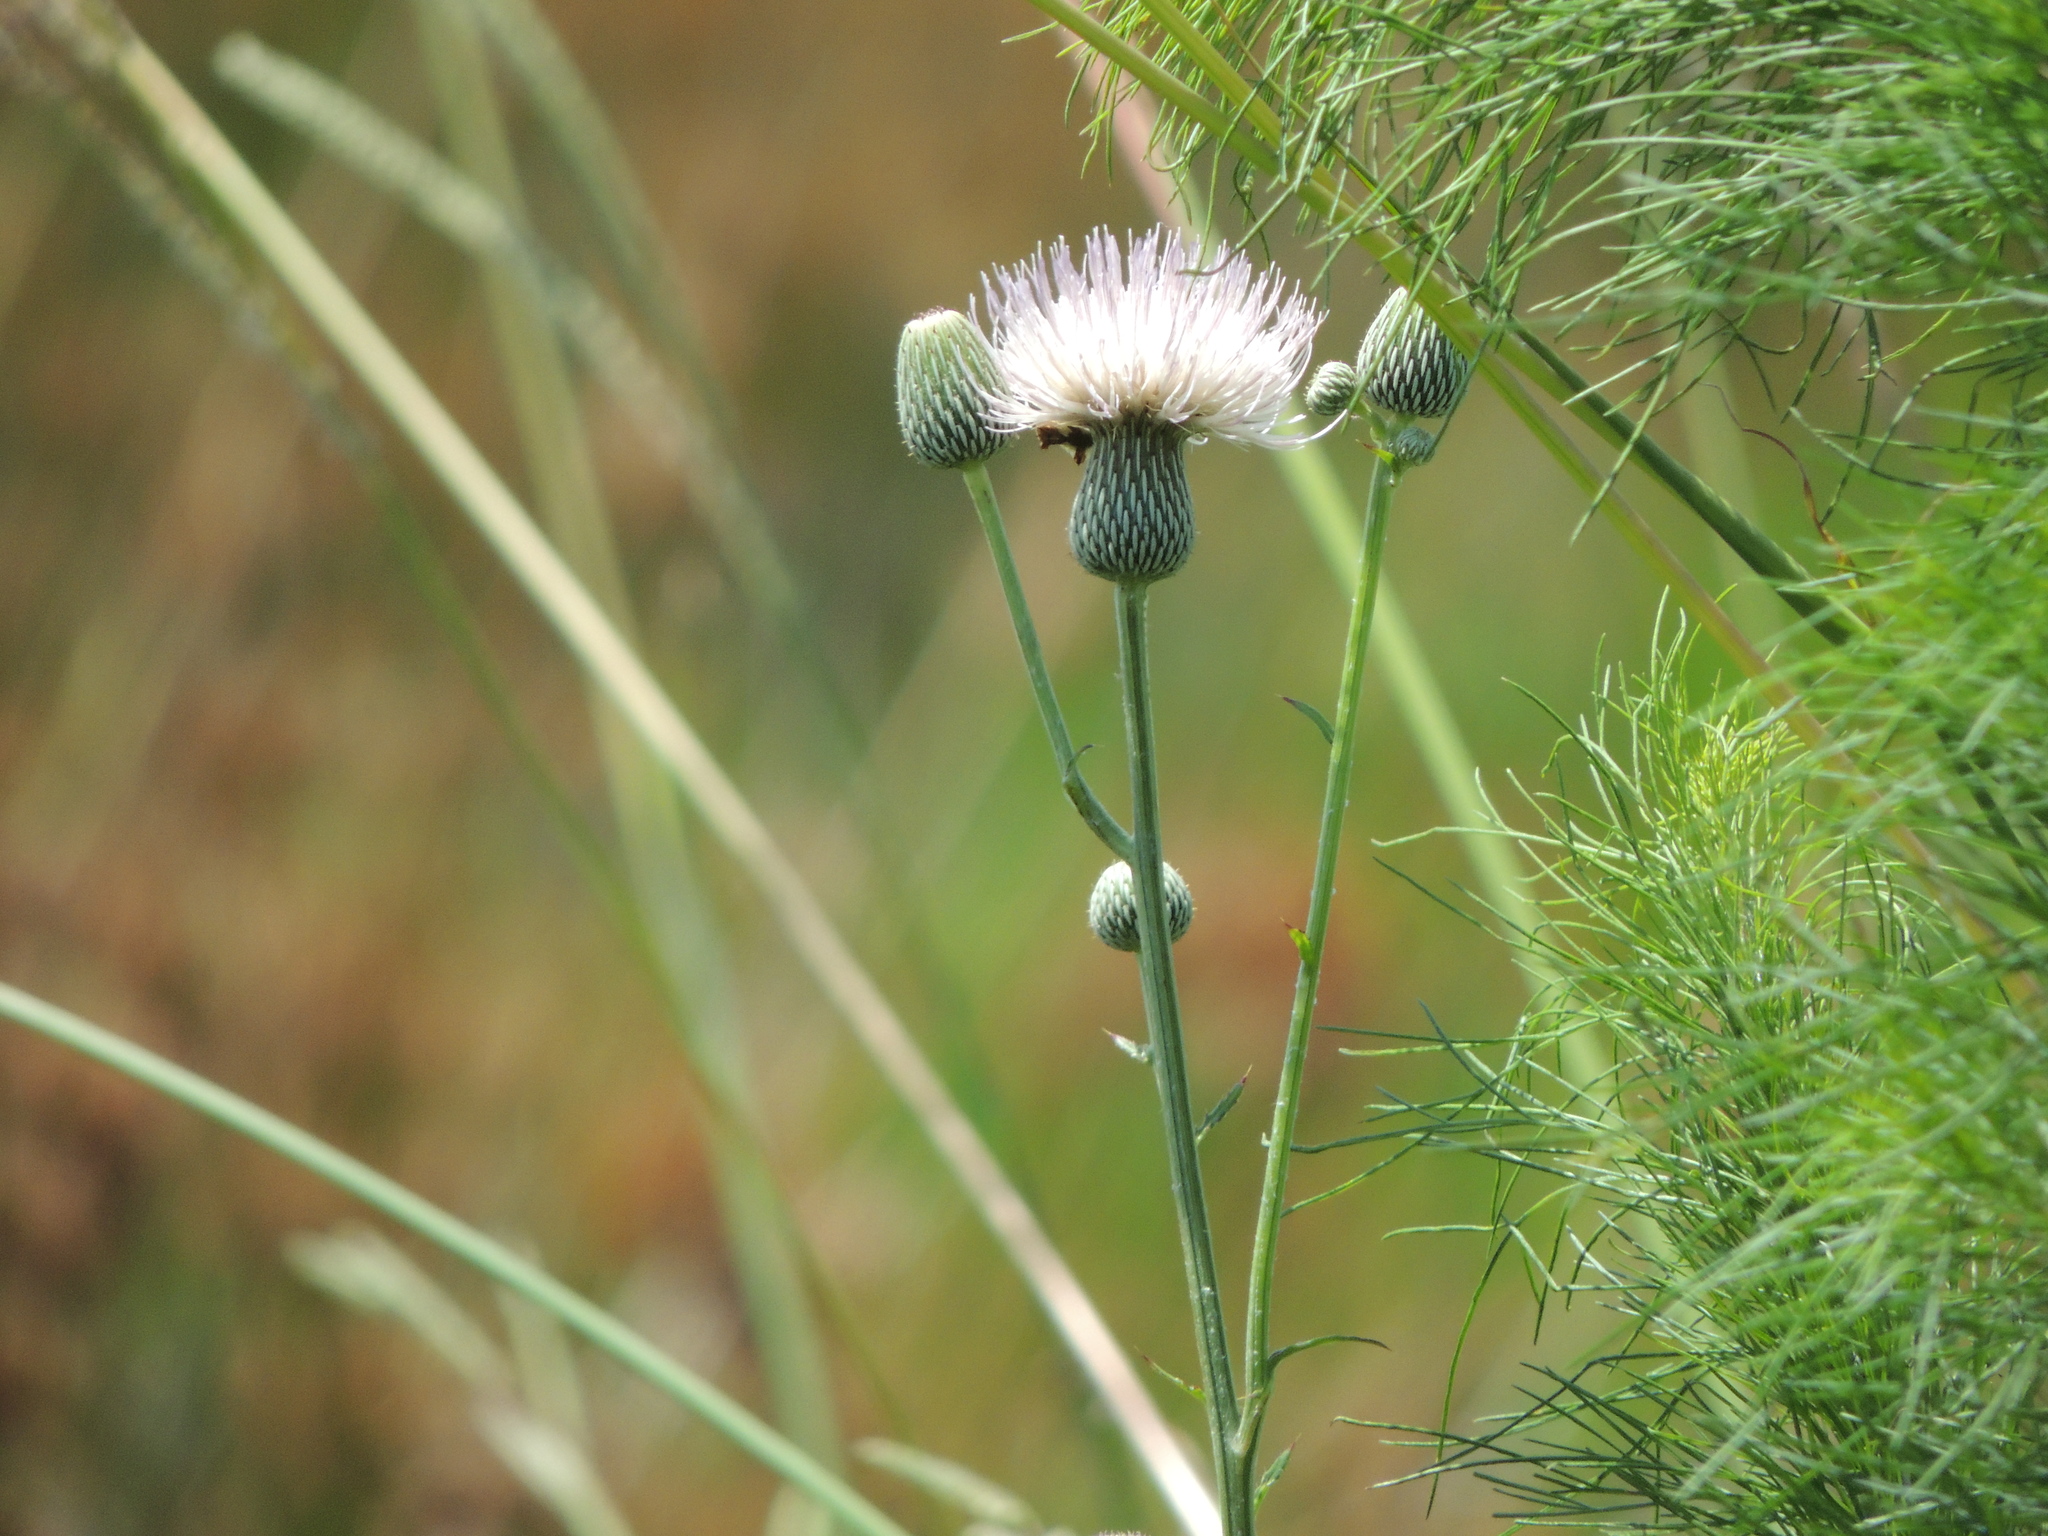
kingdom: Plantae
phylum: Tracheophyta
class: Magnoliopsida
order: Asterales
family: Asteraceae
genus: Cirsium
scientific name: Cirsium nuttalii
